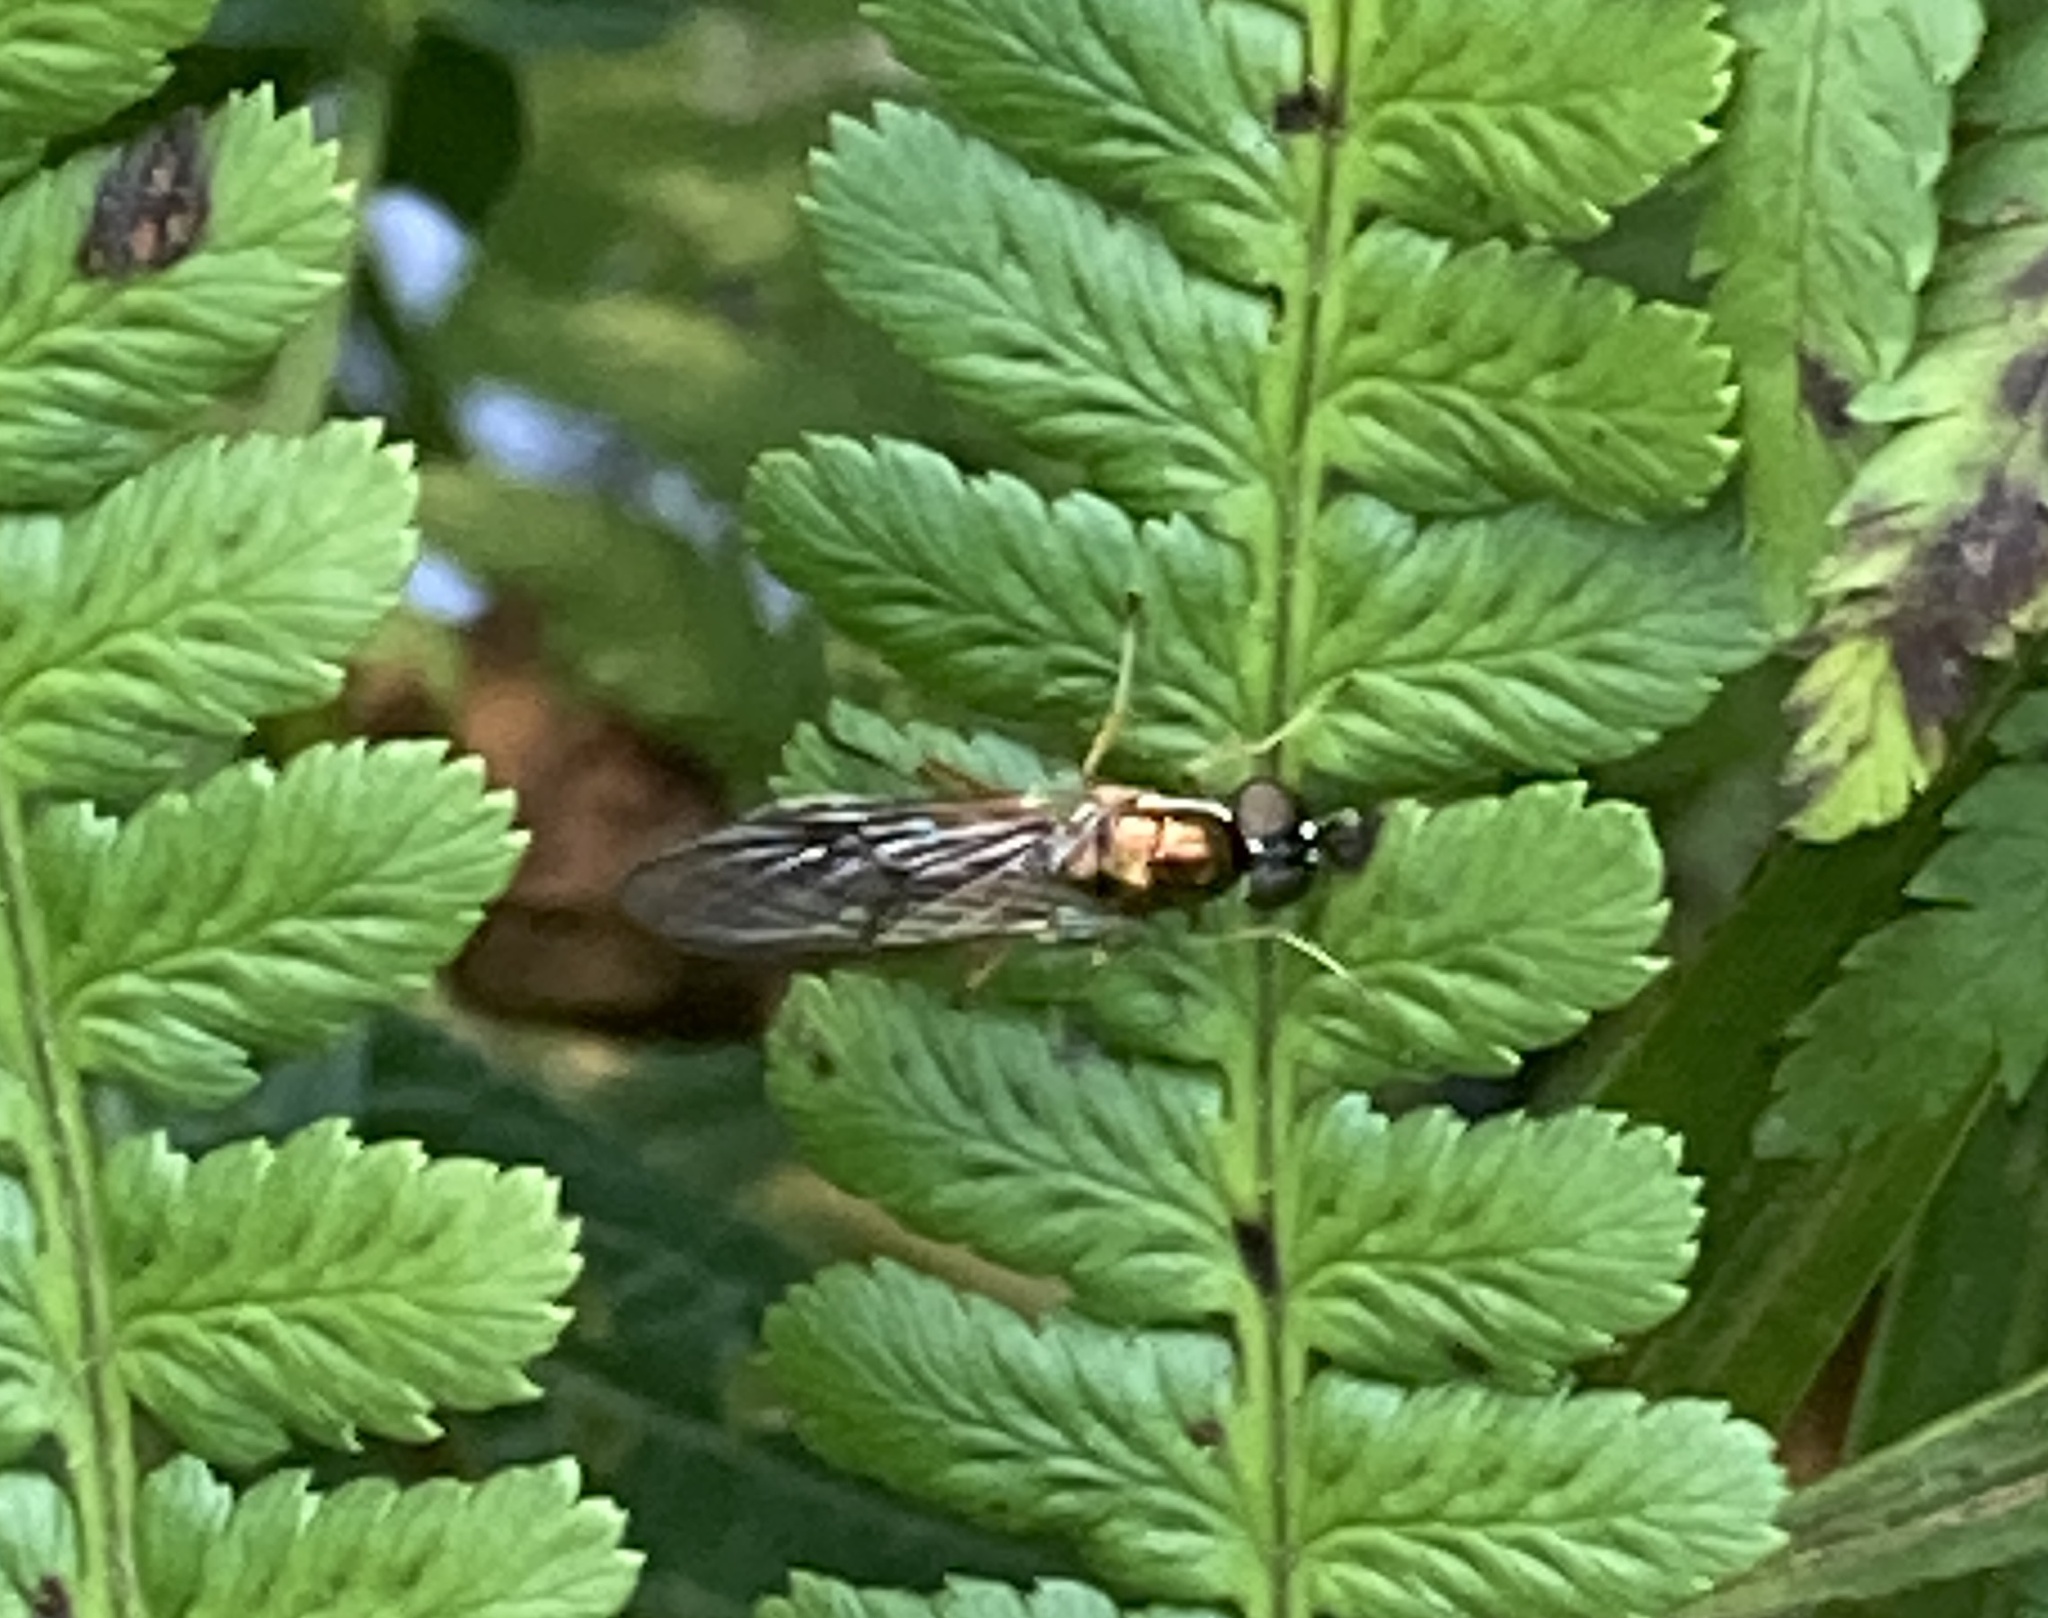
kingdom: Animalia
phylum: Arthropoda
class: Insecta
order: Diptera
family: Stratiomyidae
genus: Sargus
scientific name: Sargus bipunctatus
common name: Twin-spot centurion
